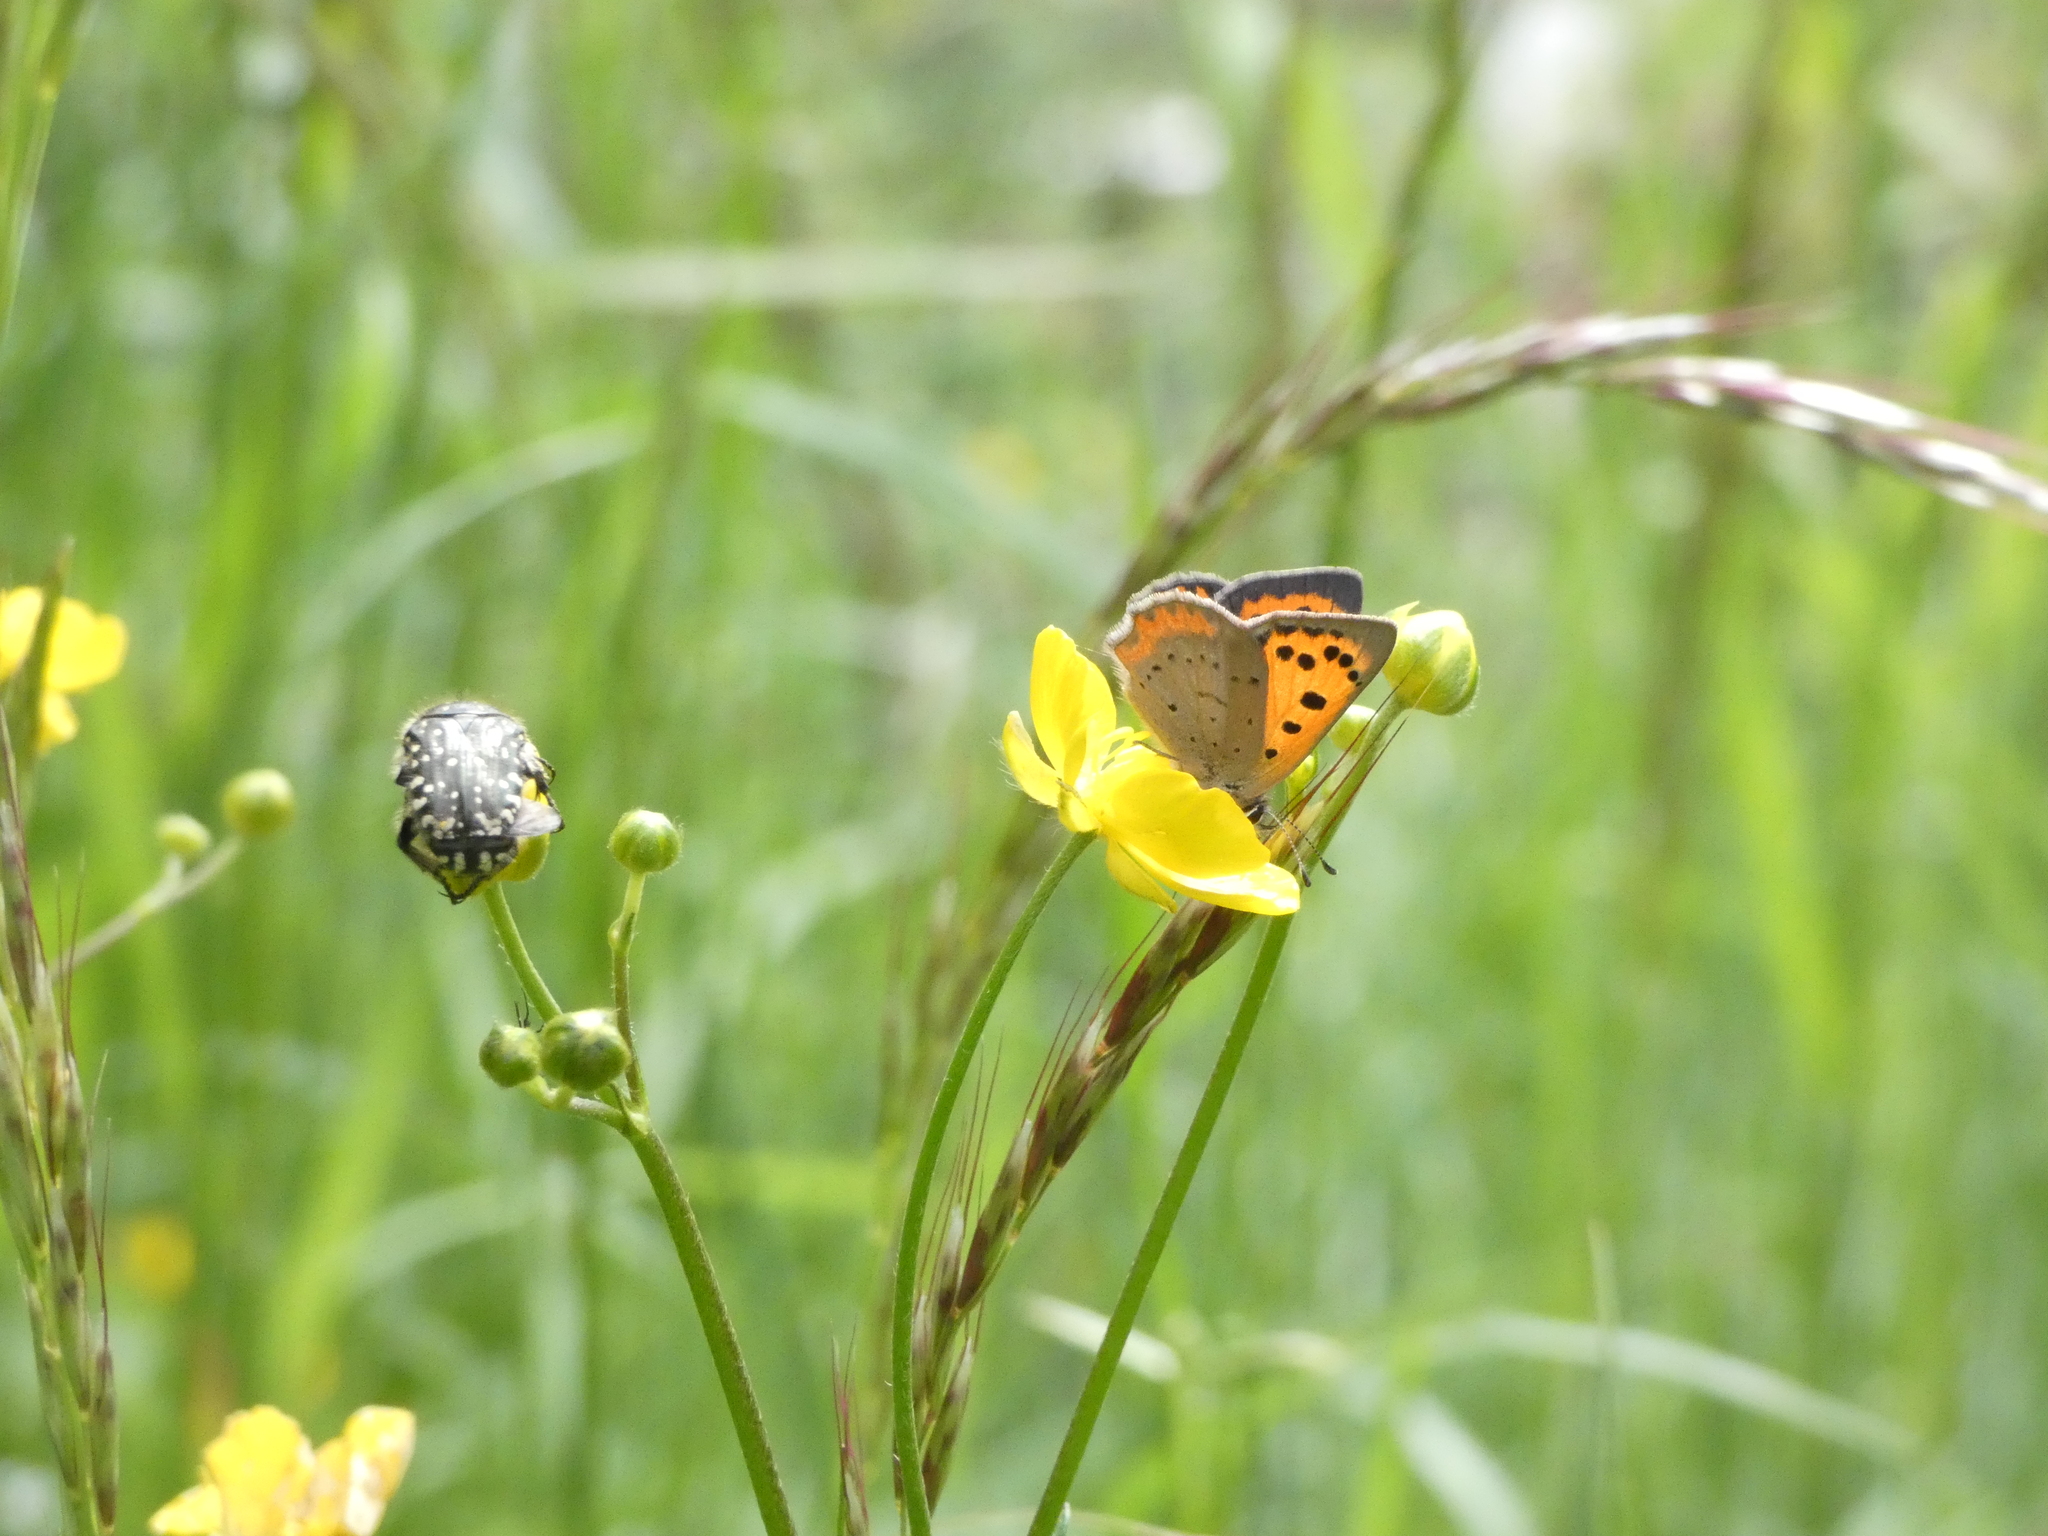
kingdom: Animalia
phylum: Arthropoda
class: Insecta
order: Lepidoptera
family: Lycaenidae
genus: Lycaena
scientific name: Lycaena phlaeas
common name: Small copper
